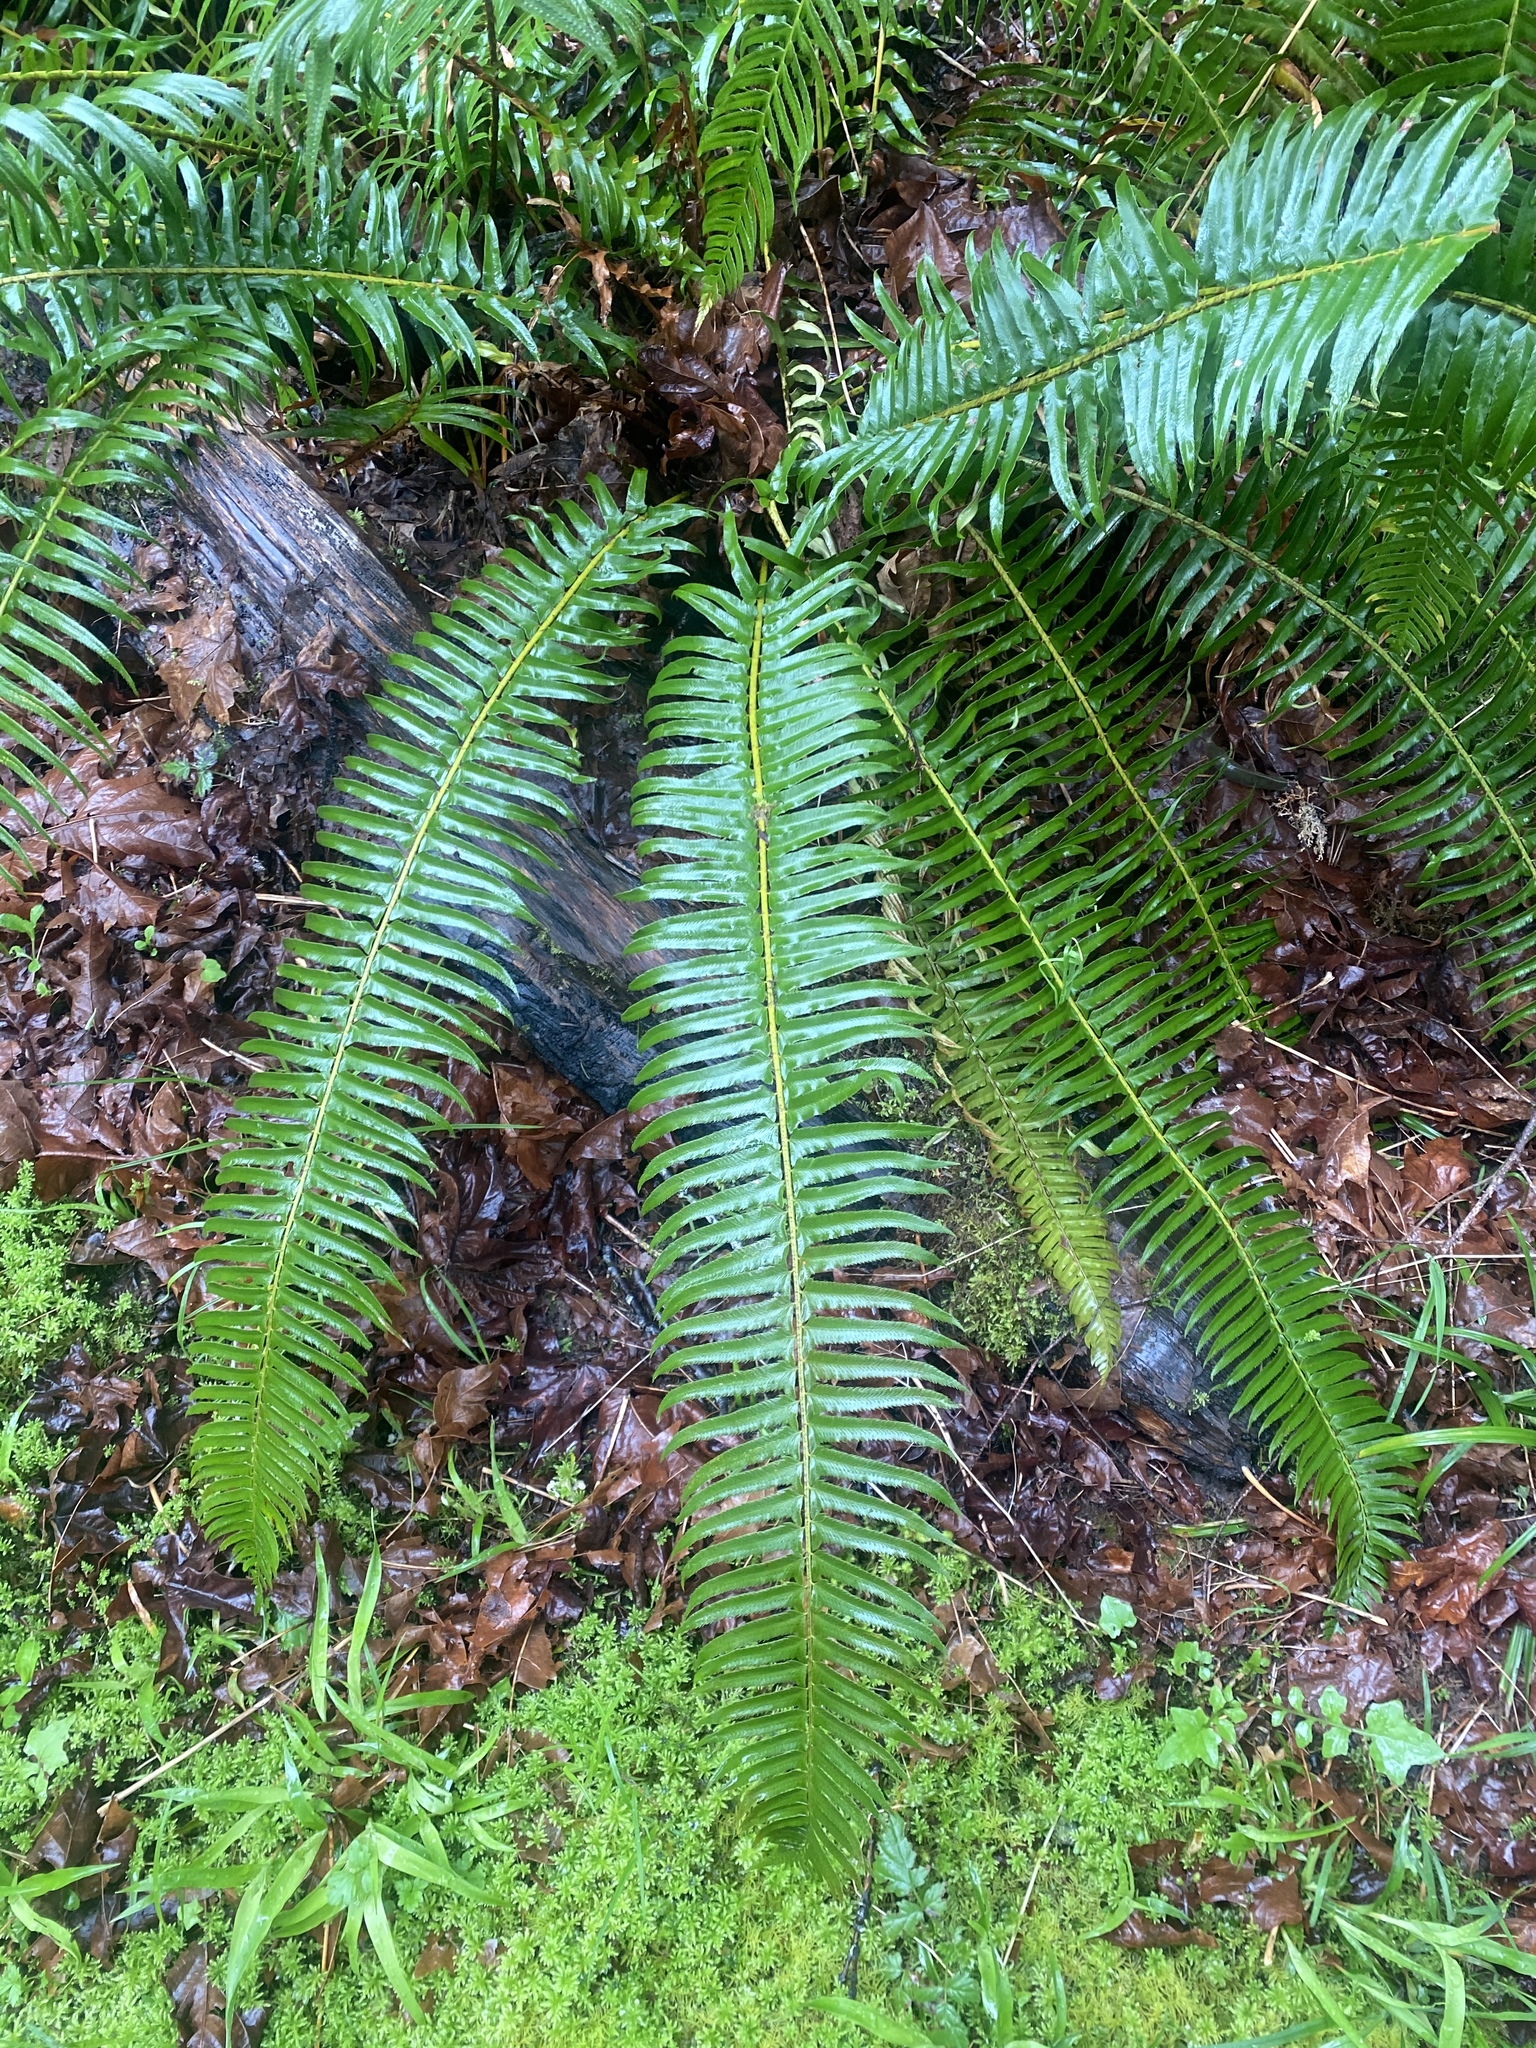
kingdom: Plantae
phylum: Tracheophyta
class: Polypodiopsida
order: Polypodiales
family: Dryopteridaceae
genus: Polystichum
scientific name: Polystichum munitum
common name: Western sword-fern
